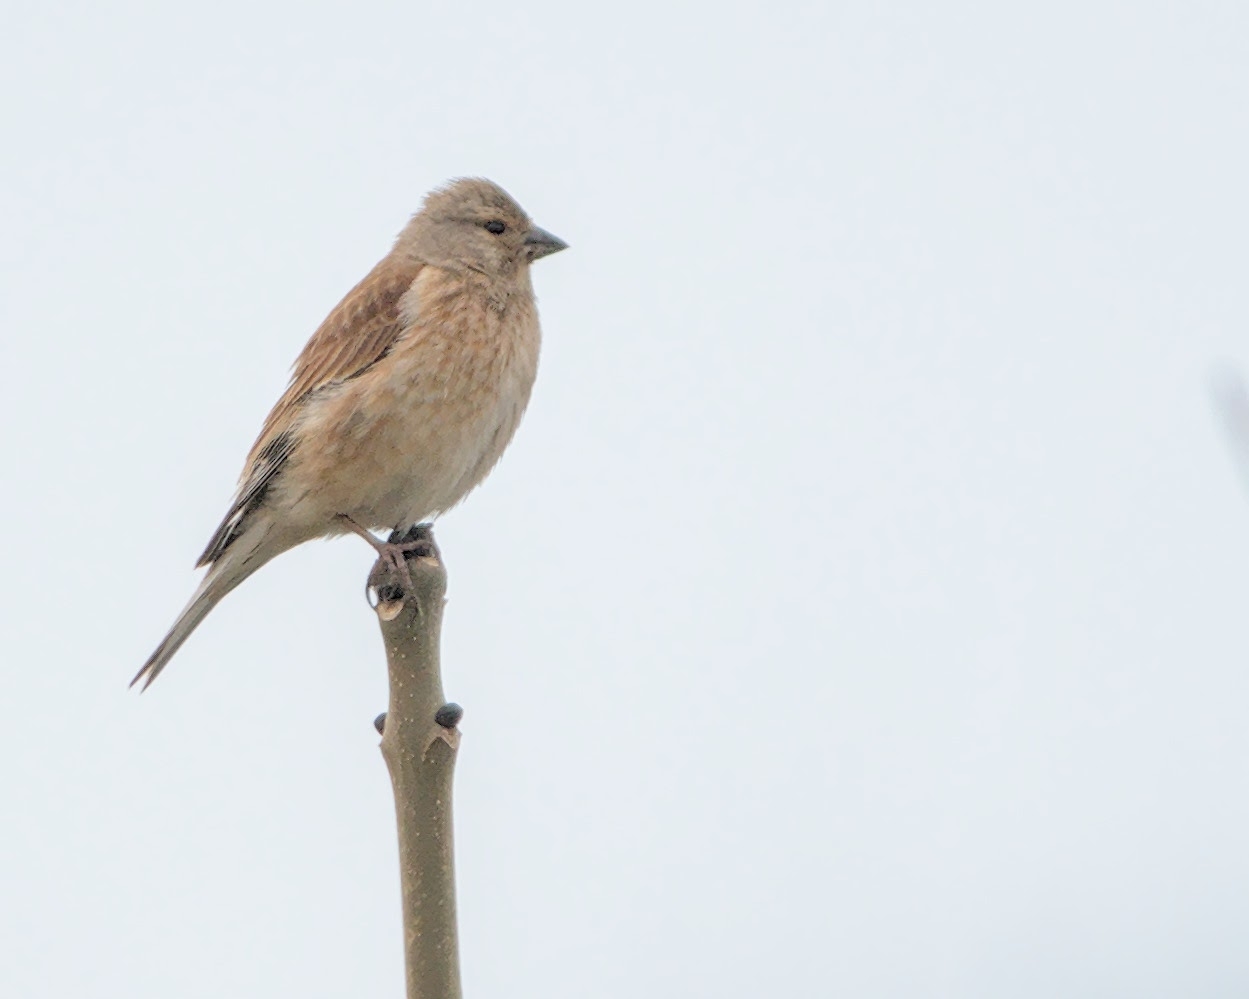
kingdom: Animalia
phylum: Chordata
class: Aves
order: Passeriformes
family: Fringillidae
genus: Linaria
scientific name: Linaria cannabina
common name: Common linnet
